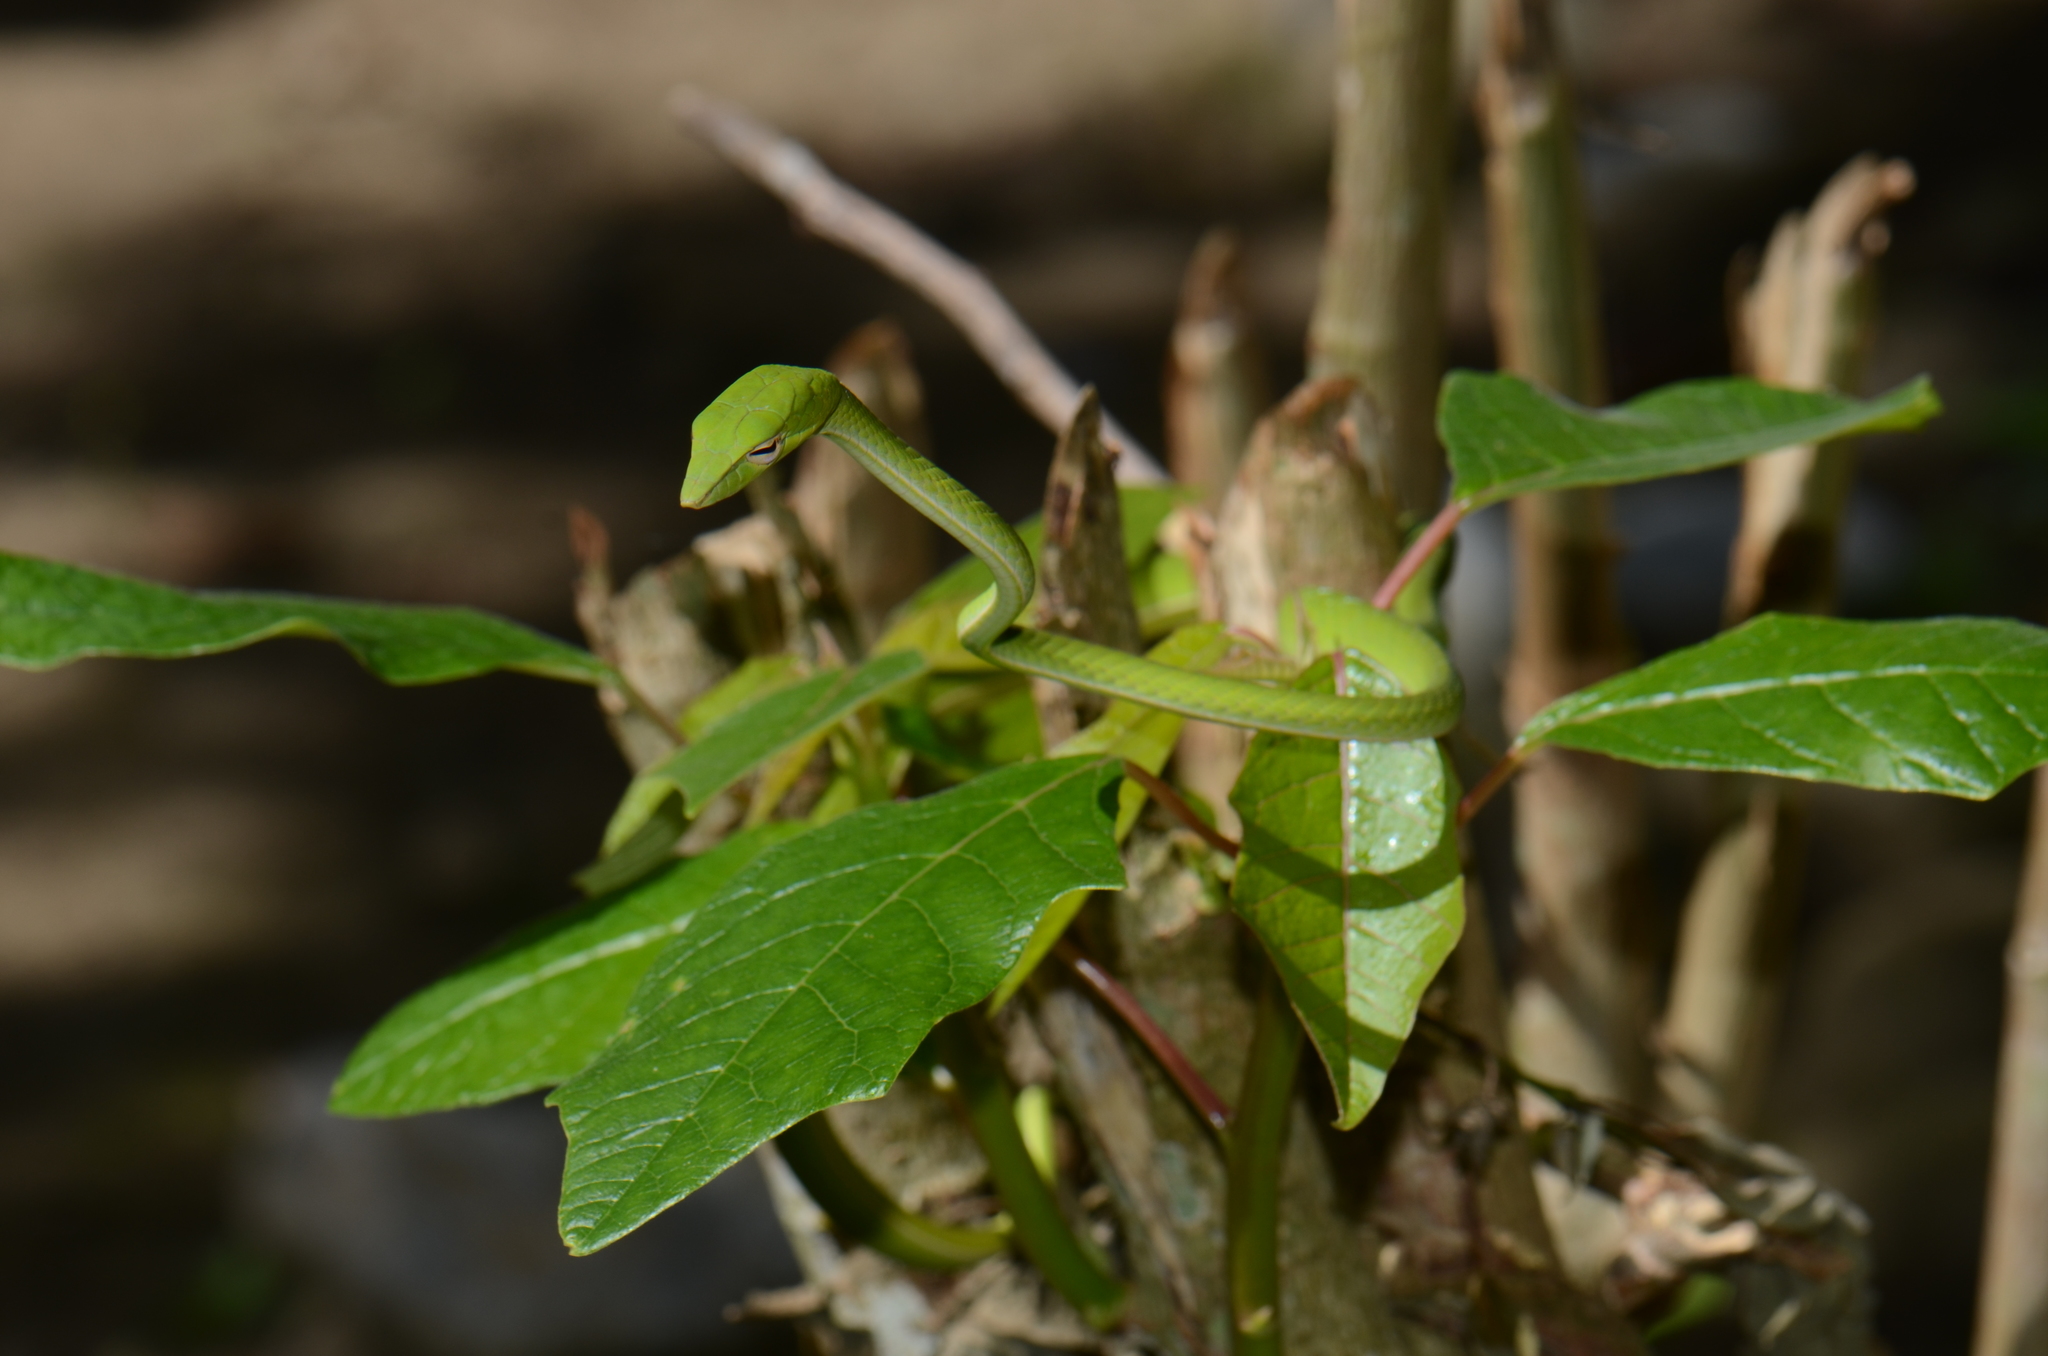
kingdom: Animalia
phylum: Chordata
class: Squamata
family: Colubridae
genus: Ahaetulla
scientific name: Ahaetulla prasina
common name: Oriental whip snake
